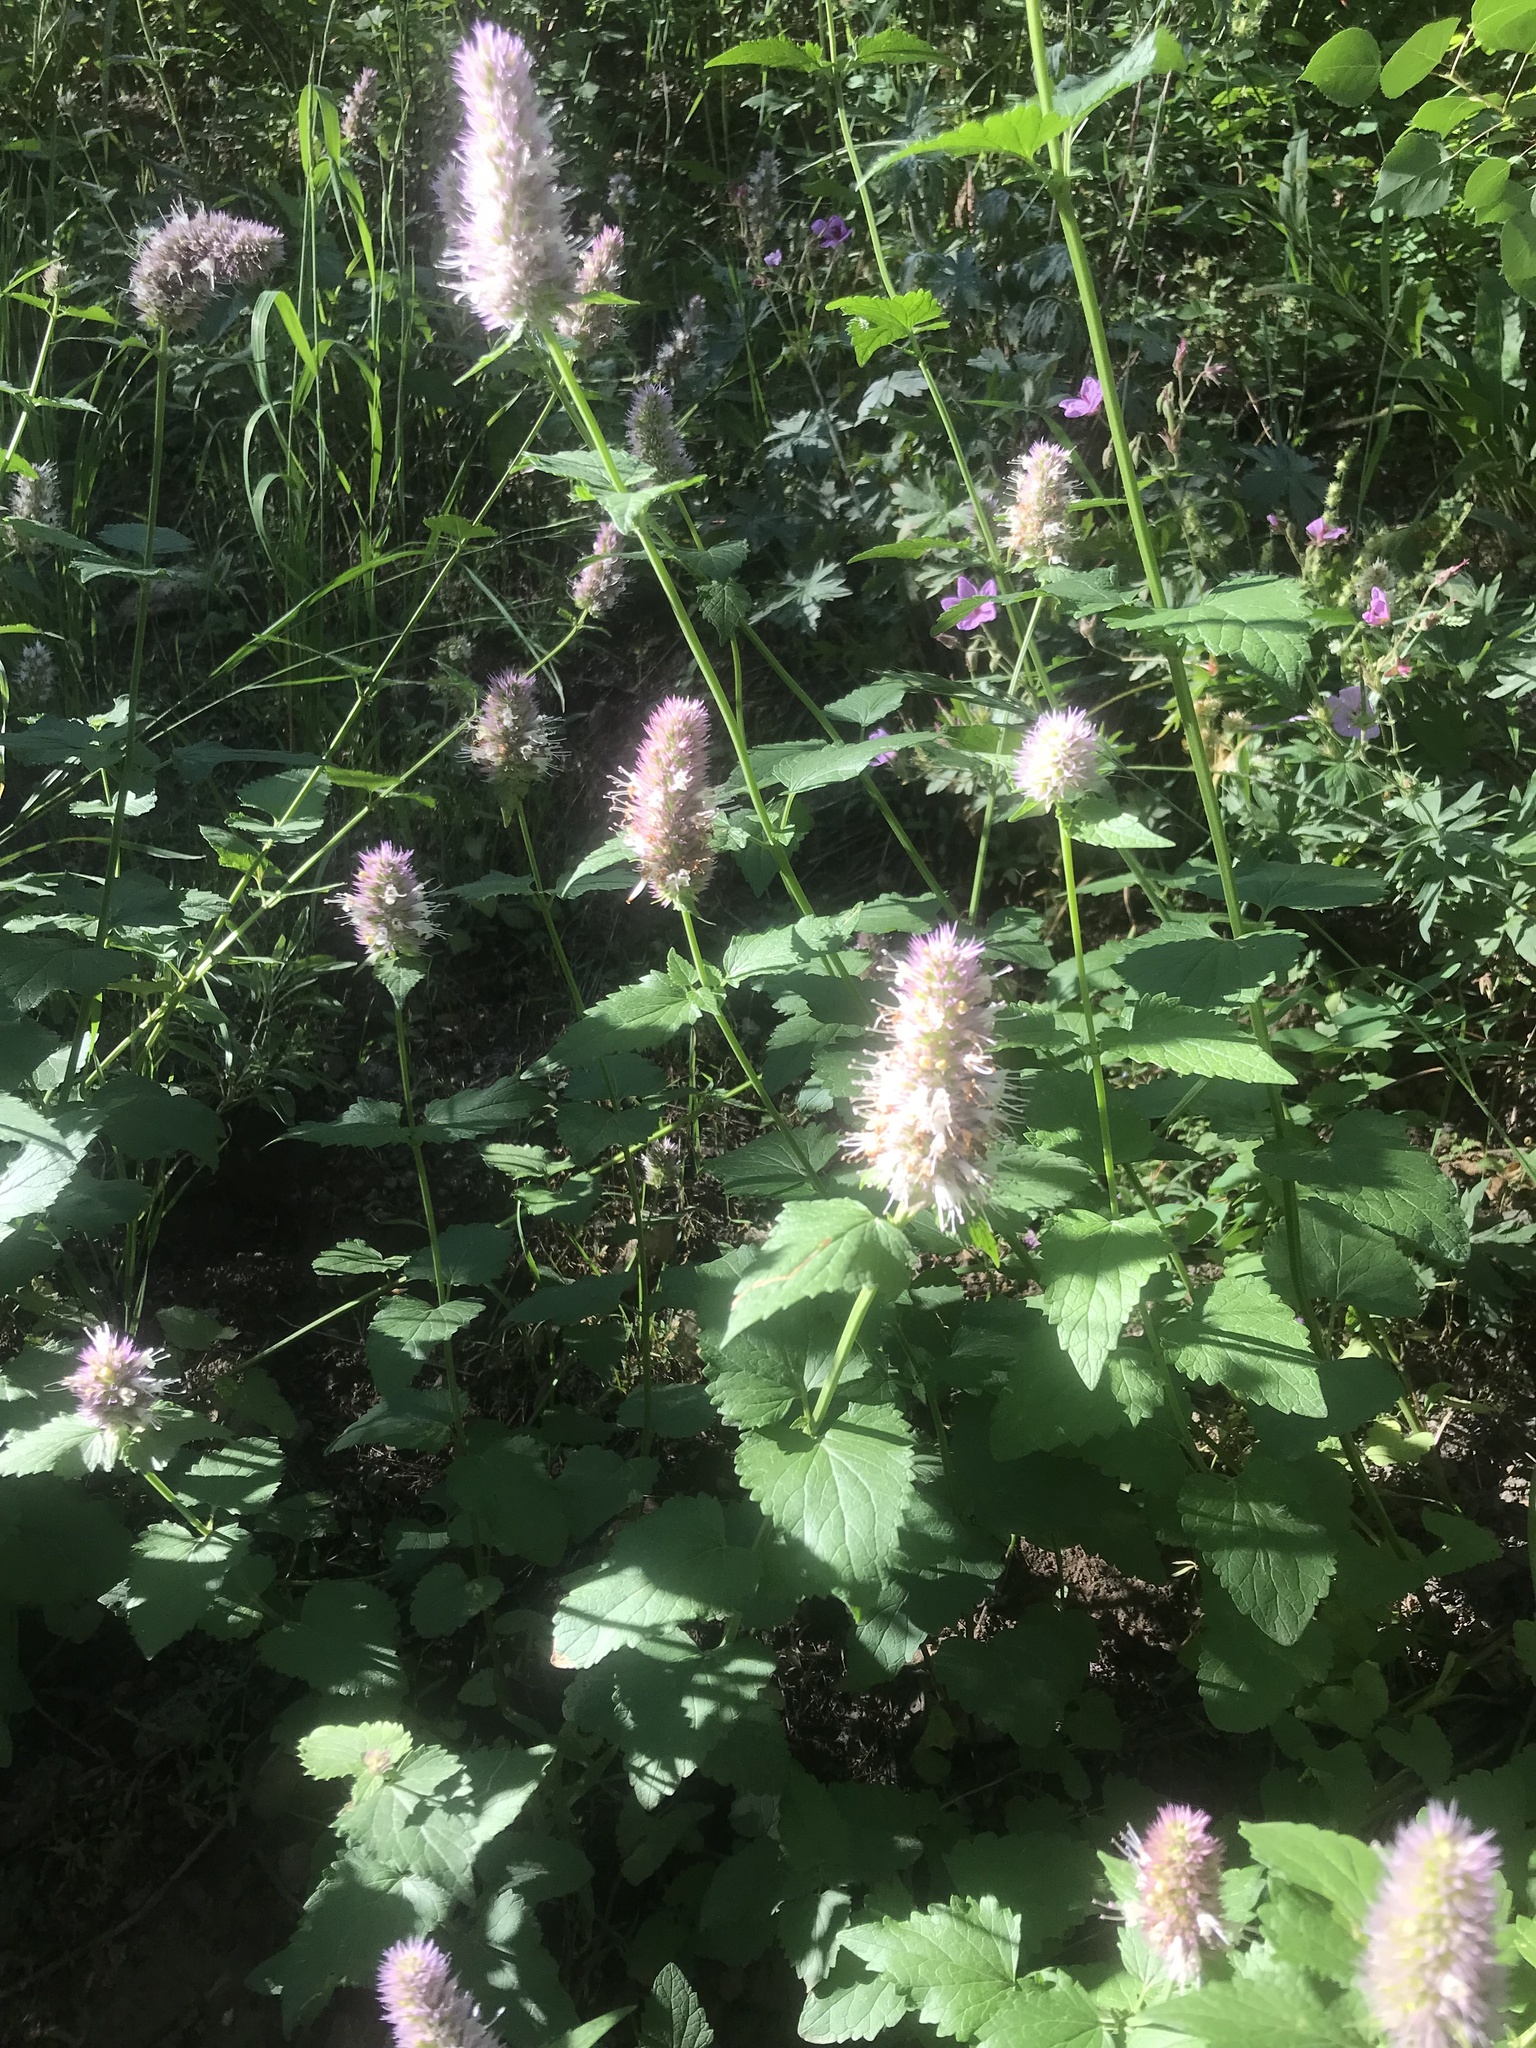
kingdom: Plantae
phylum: Tracheophyta
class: Magnoliopsida
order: Lamiales
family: Lamiaceae
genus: Agastache
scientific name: Agastache urticifolia
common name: Horsemint giant hyssop
